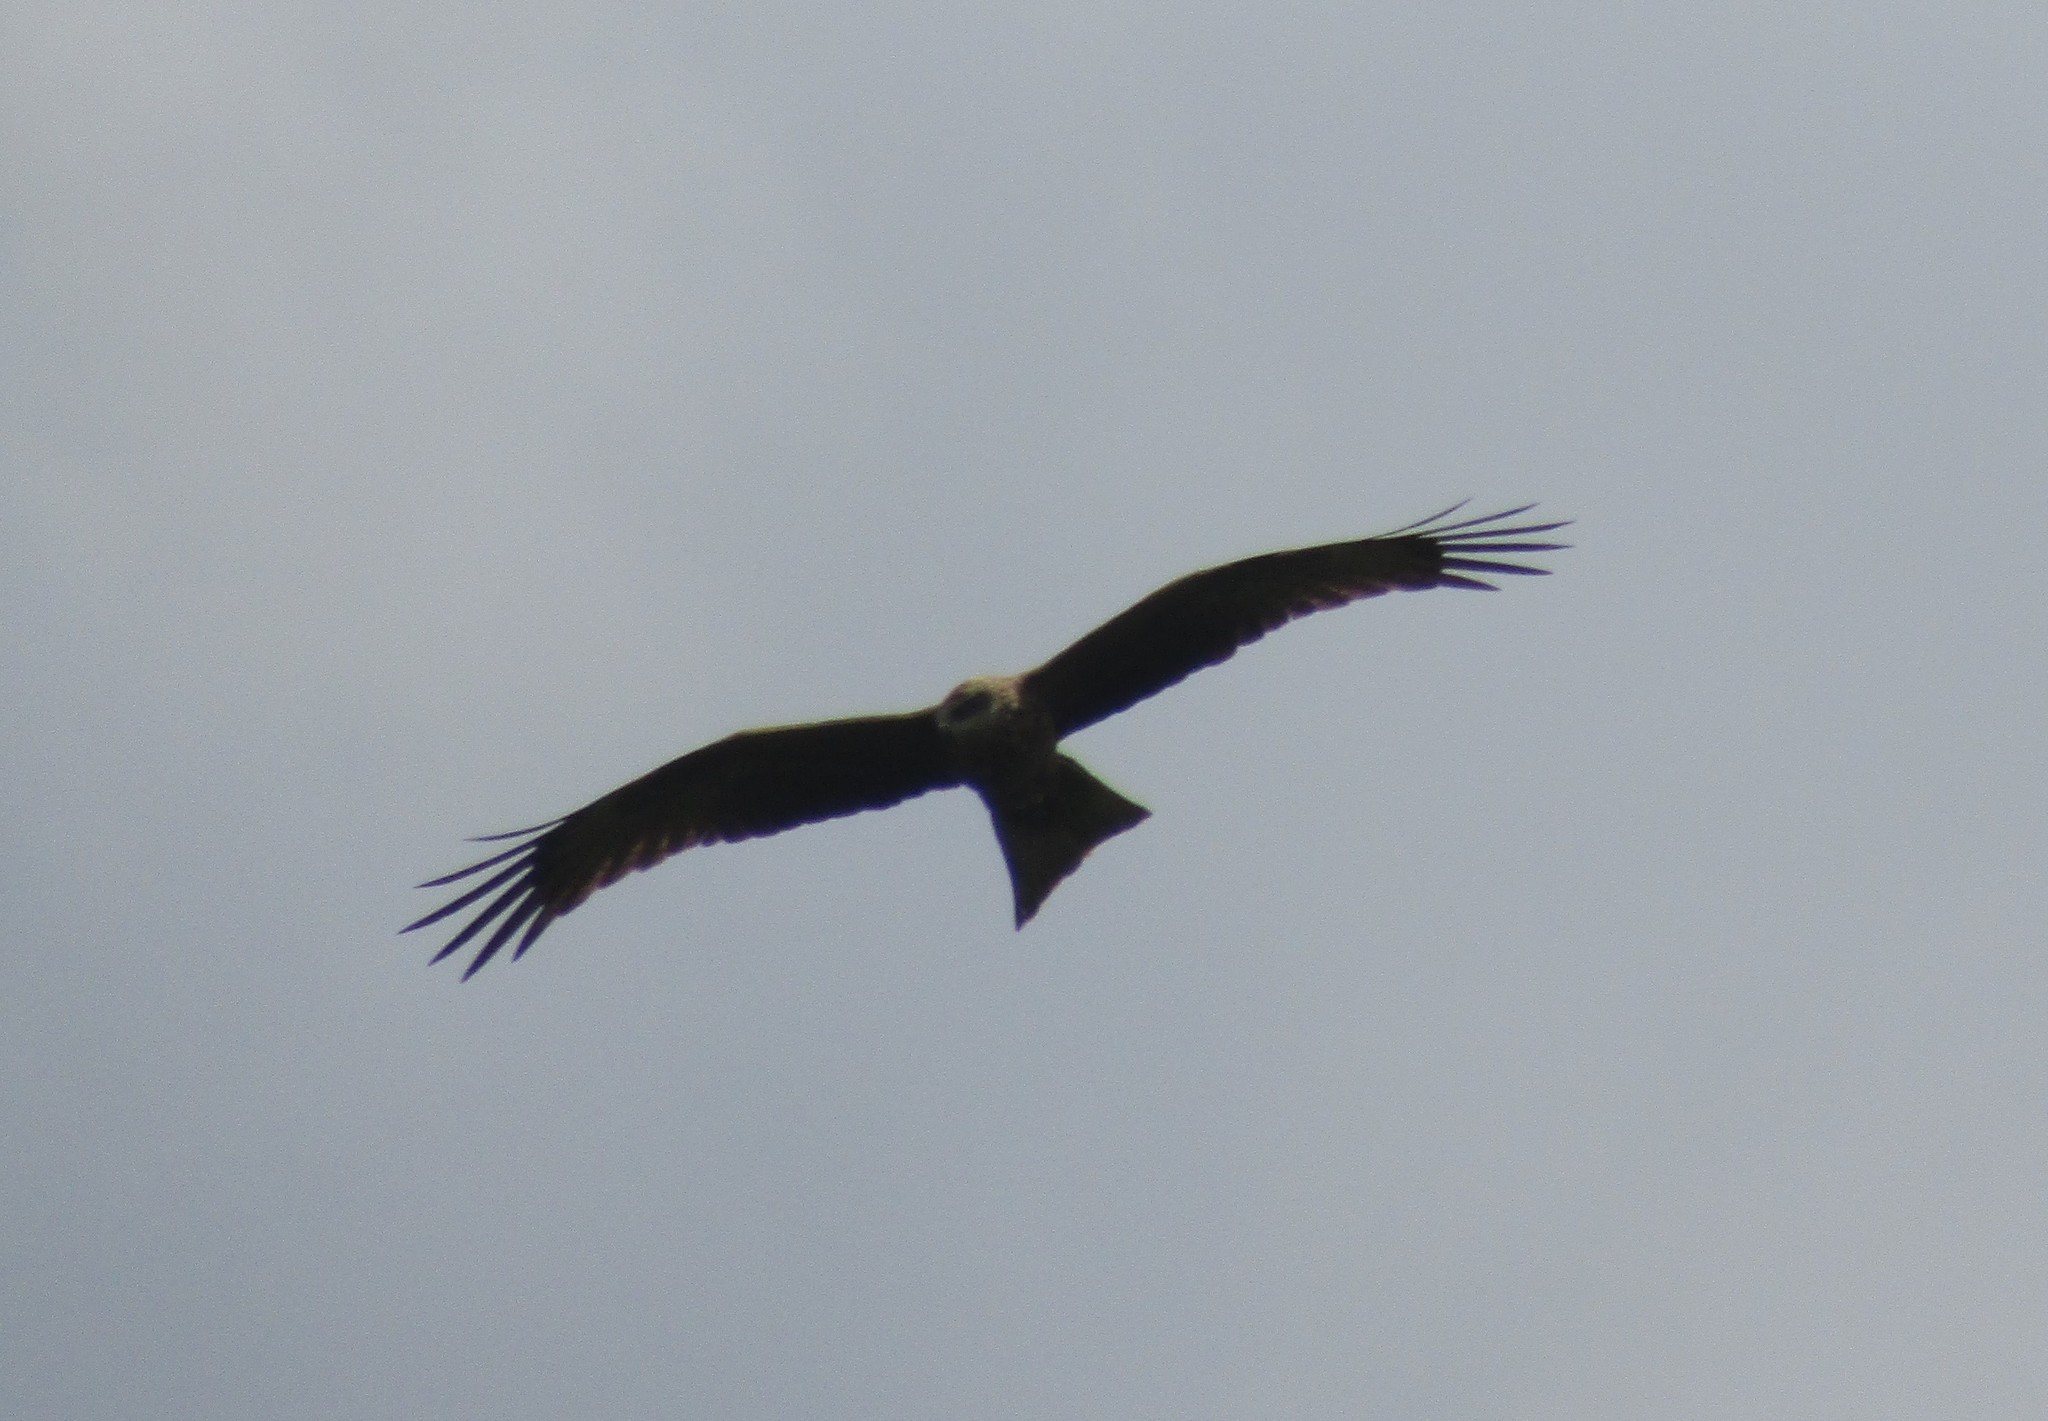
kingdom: Animalia
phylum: Chordata
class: Aves
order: Accipitriformes
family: Accipitridae
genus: Milvus
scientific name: Milvus migrans
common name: Black kite
